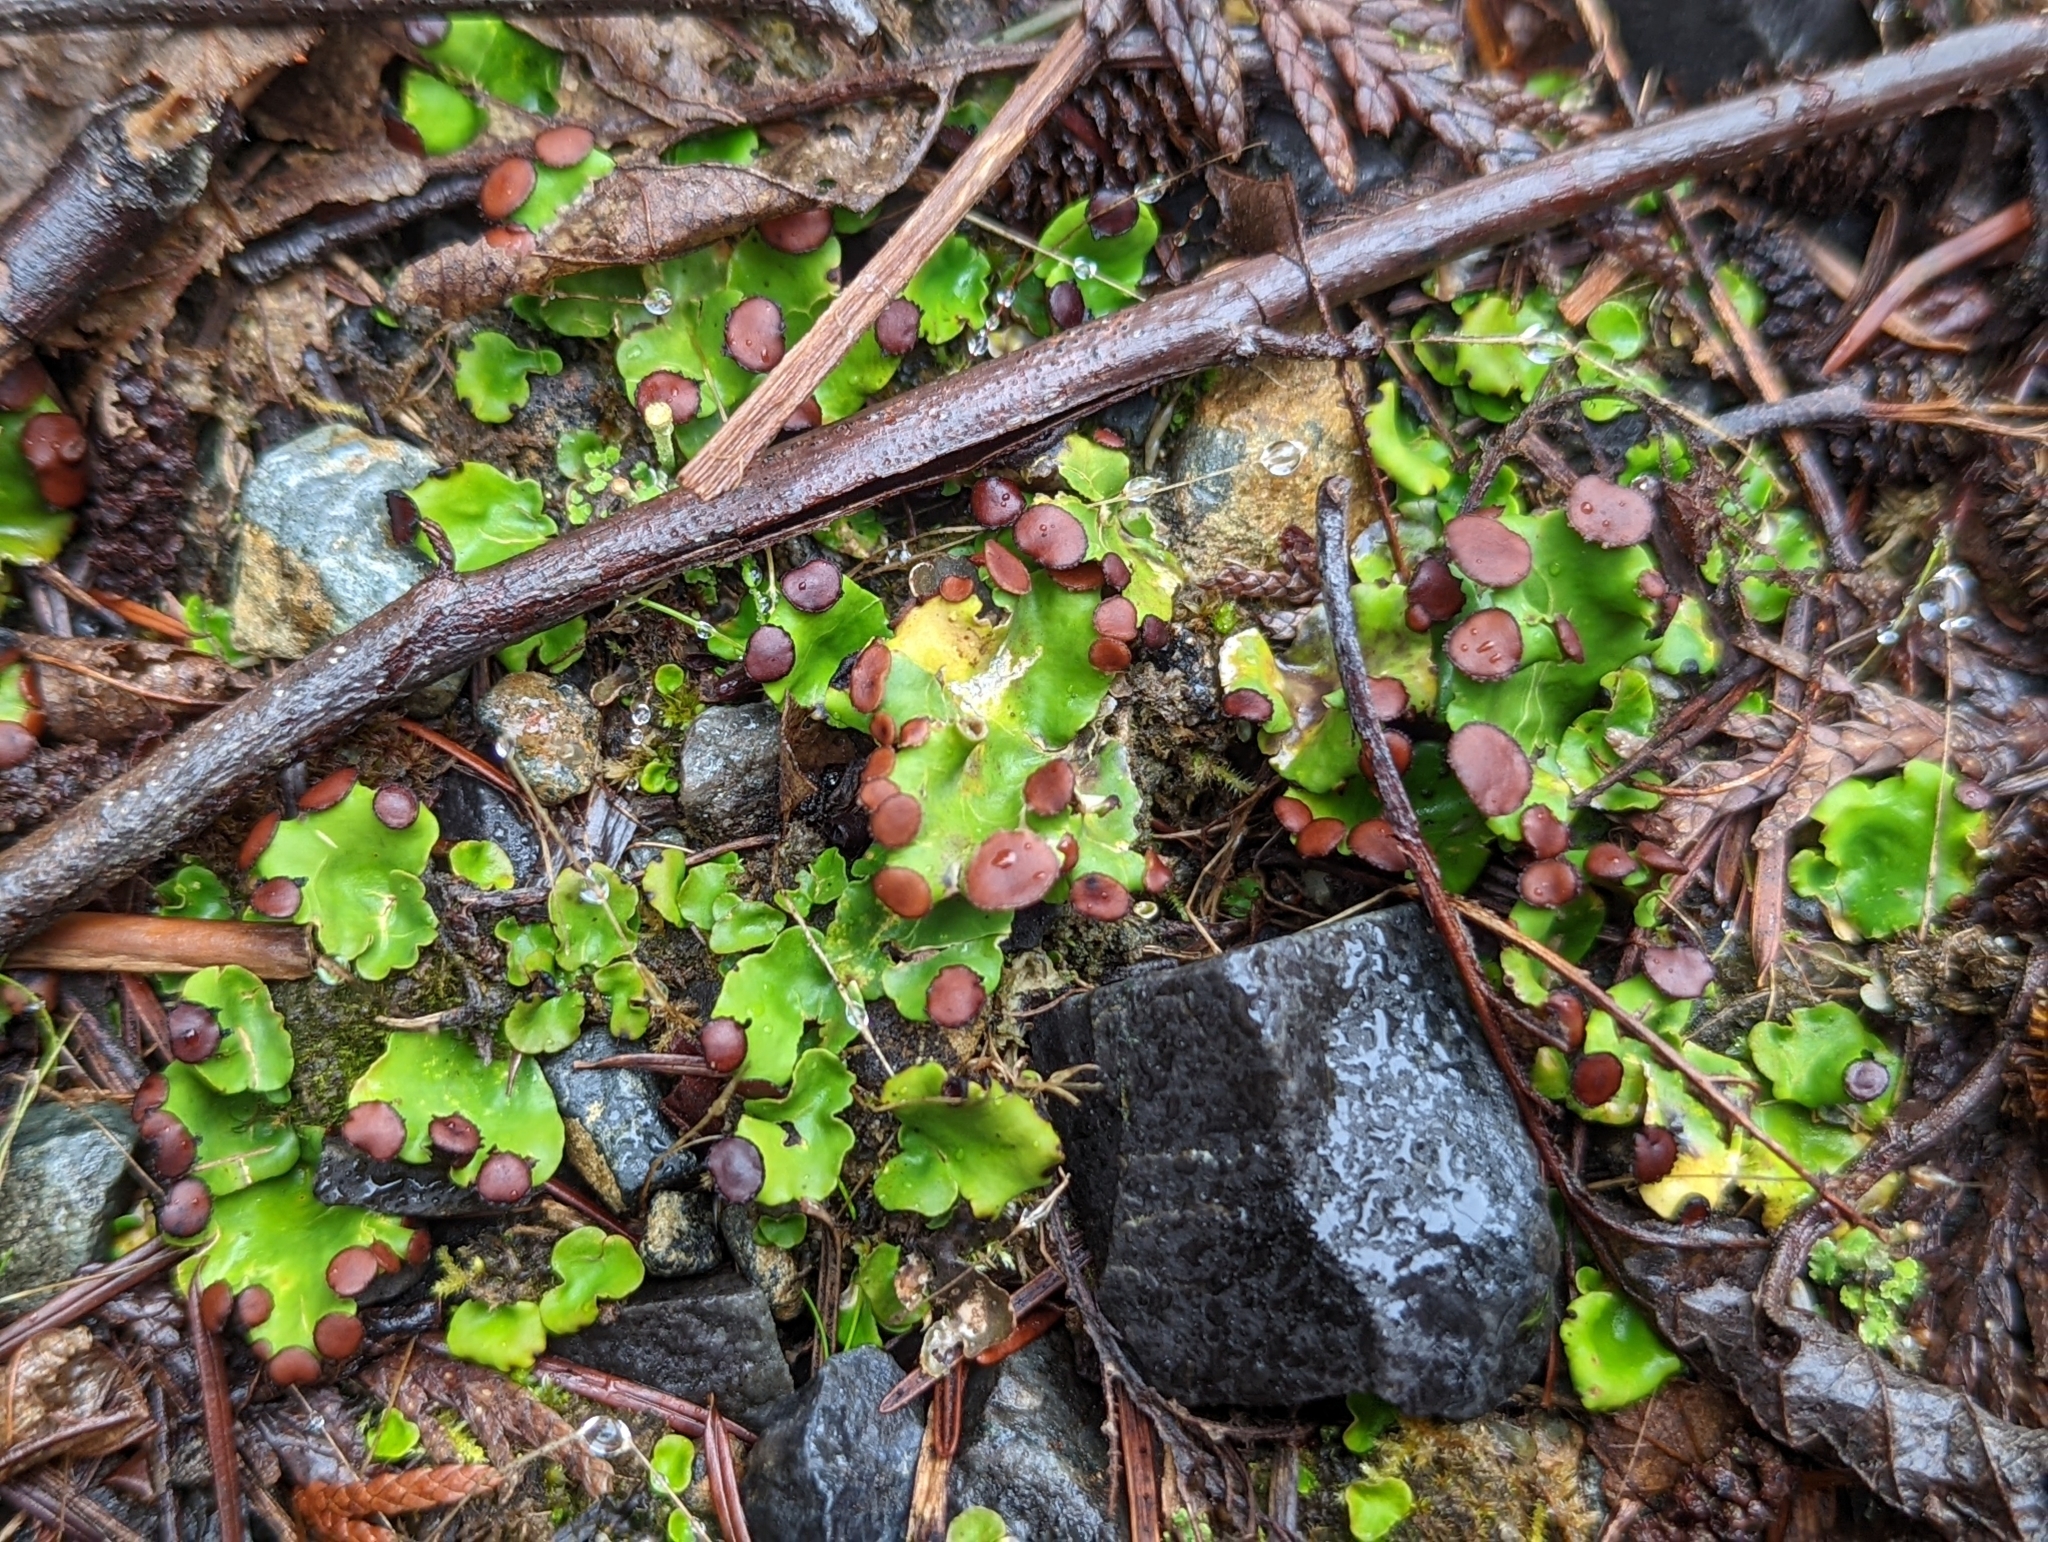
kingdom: Fungi
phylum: Ascomycota
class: Lecanoromycetes
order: Peltigerales
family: Peltigeraceae
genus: Peltigera
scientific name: Peltigera venosa
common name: Pixie gowns lichen
